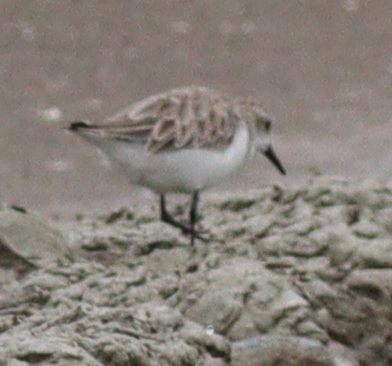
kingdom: Animalia
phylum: Chordata
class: Aves
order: Charadriiformes
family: Scolopacidae
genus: Calidris
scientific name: Calidris ruficollis
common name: Red-necked stint
